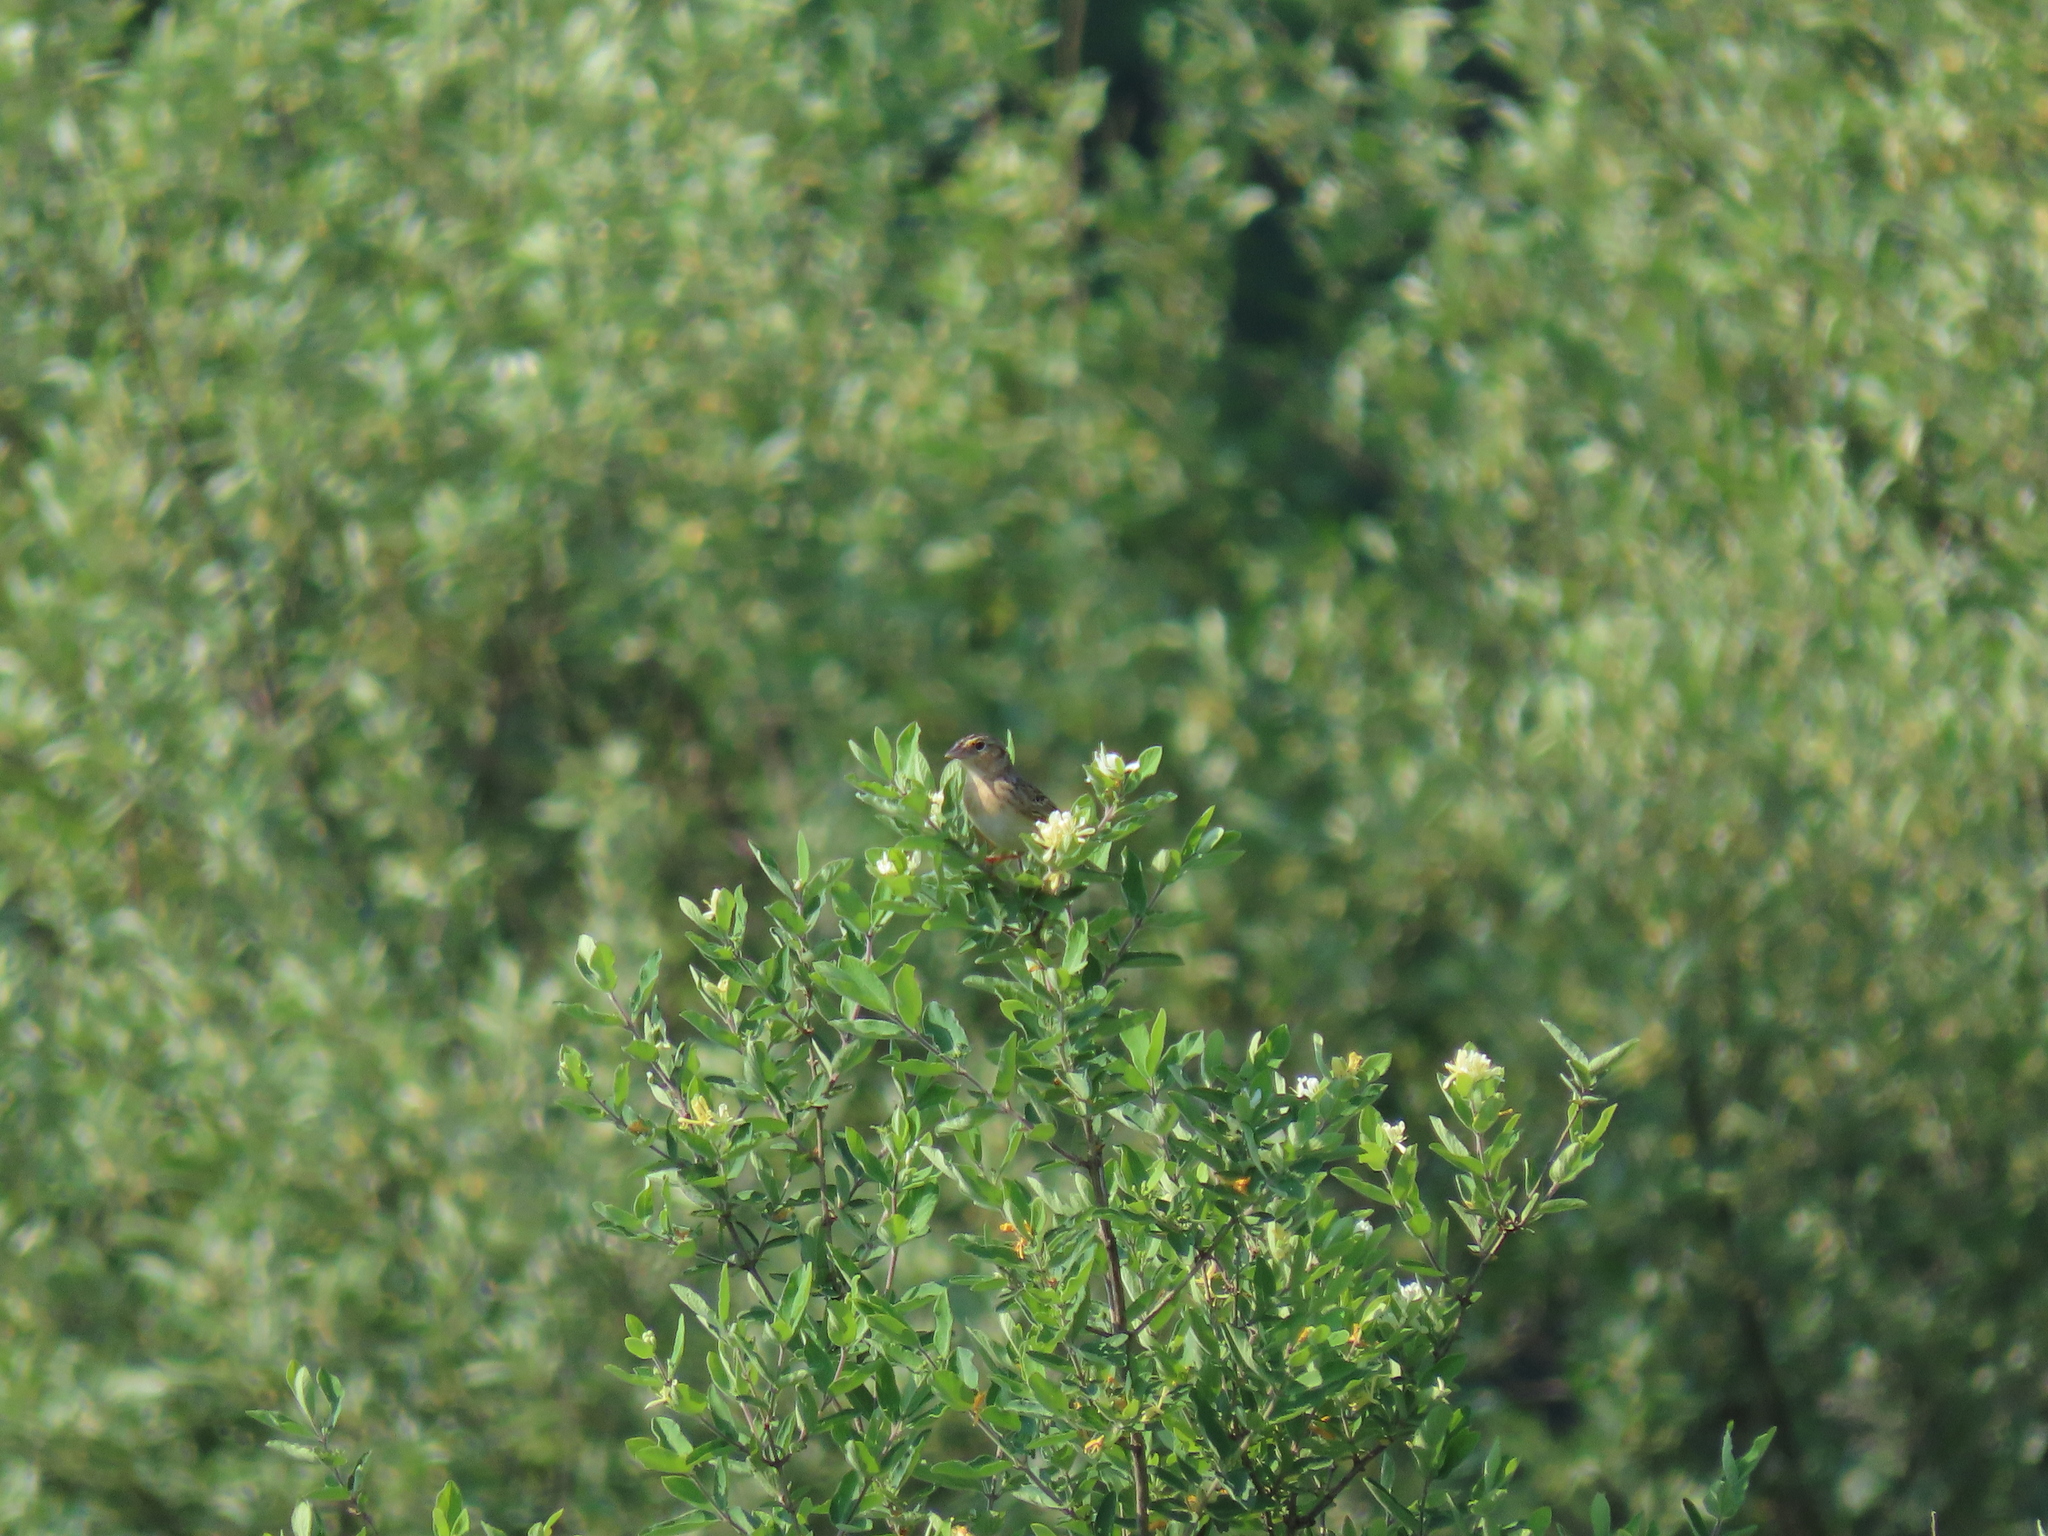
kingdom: Animalia
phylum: Chordata
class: Aves
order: Passeriformes
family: Passerellidae
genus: Ammodramus
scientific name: Ammodramus savannarum
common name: Grasshopper sparrow
